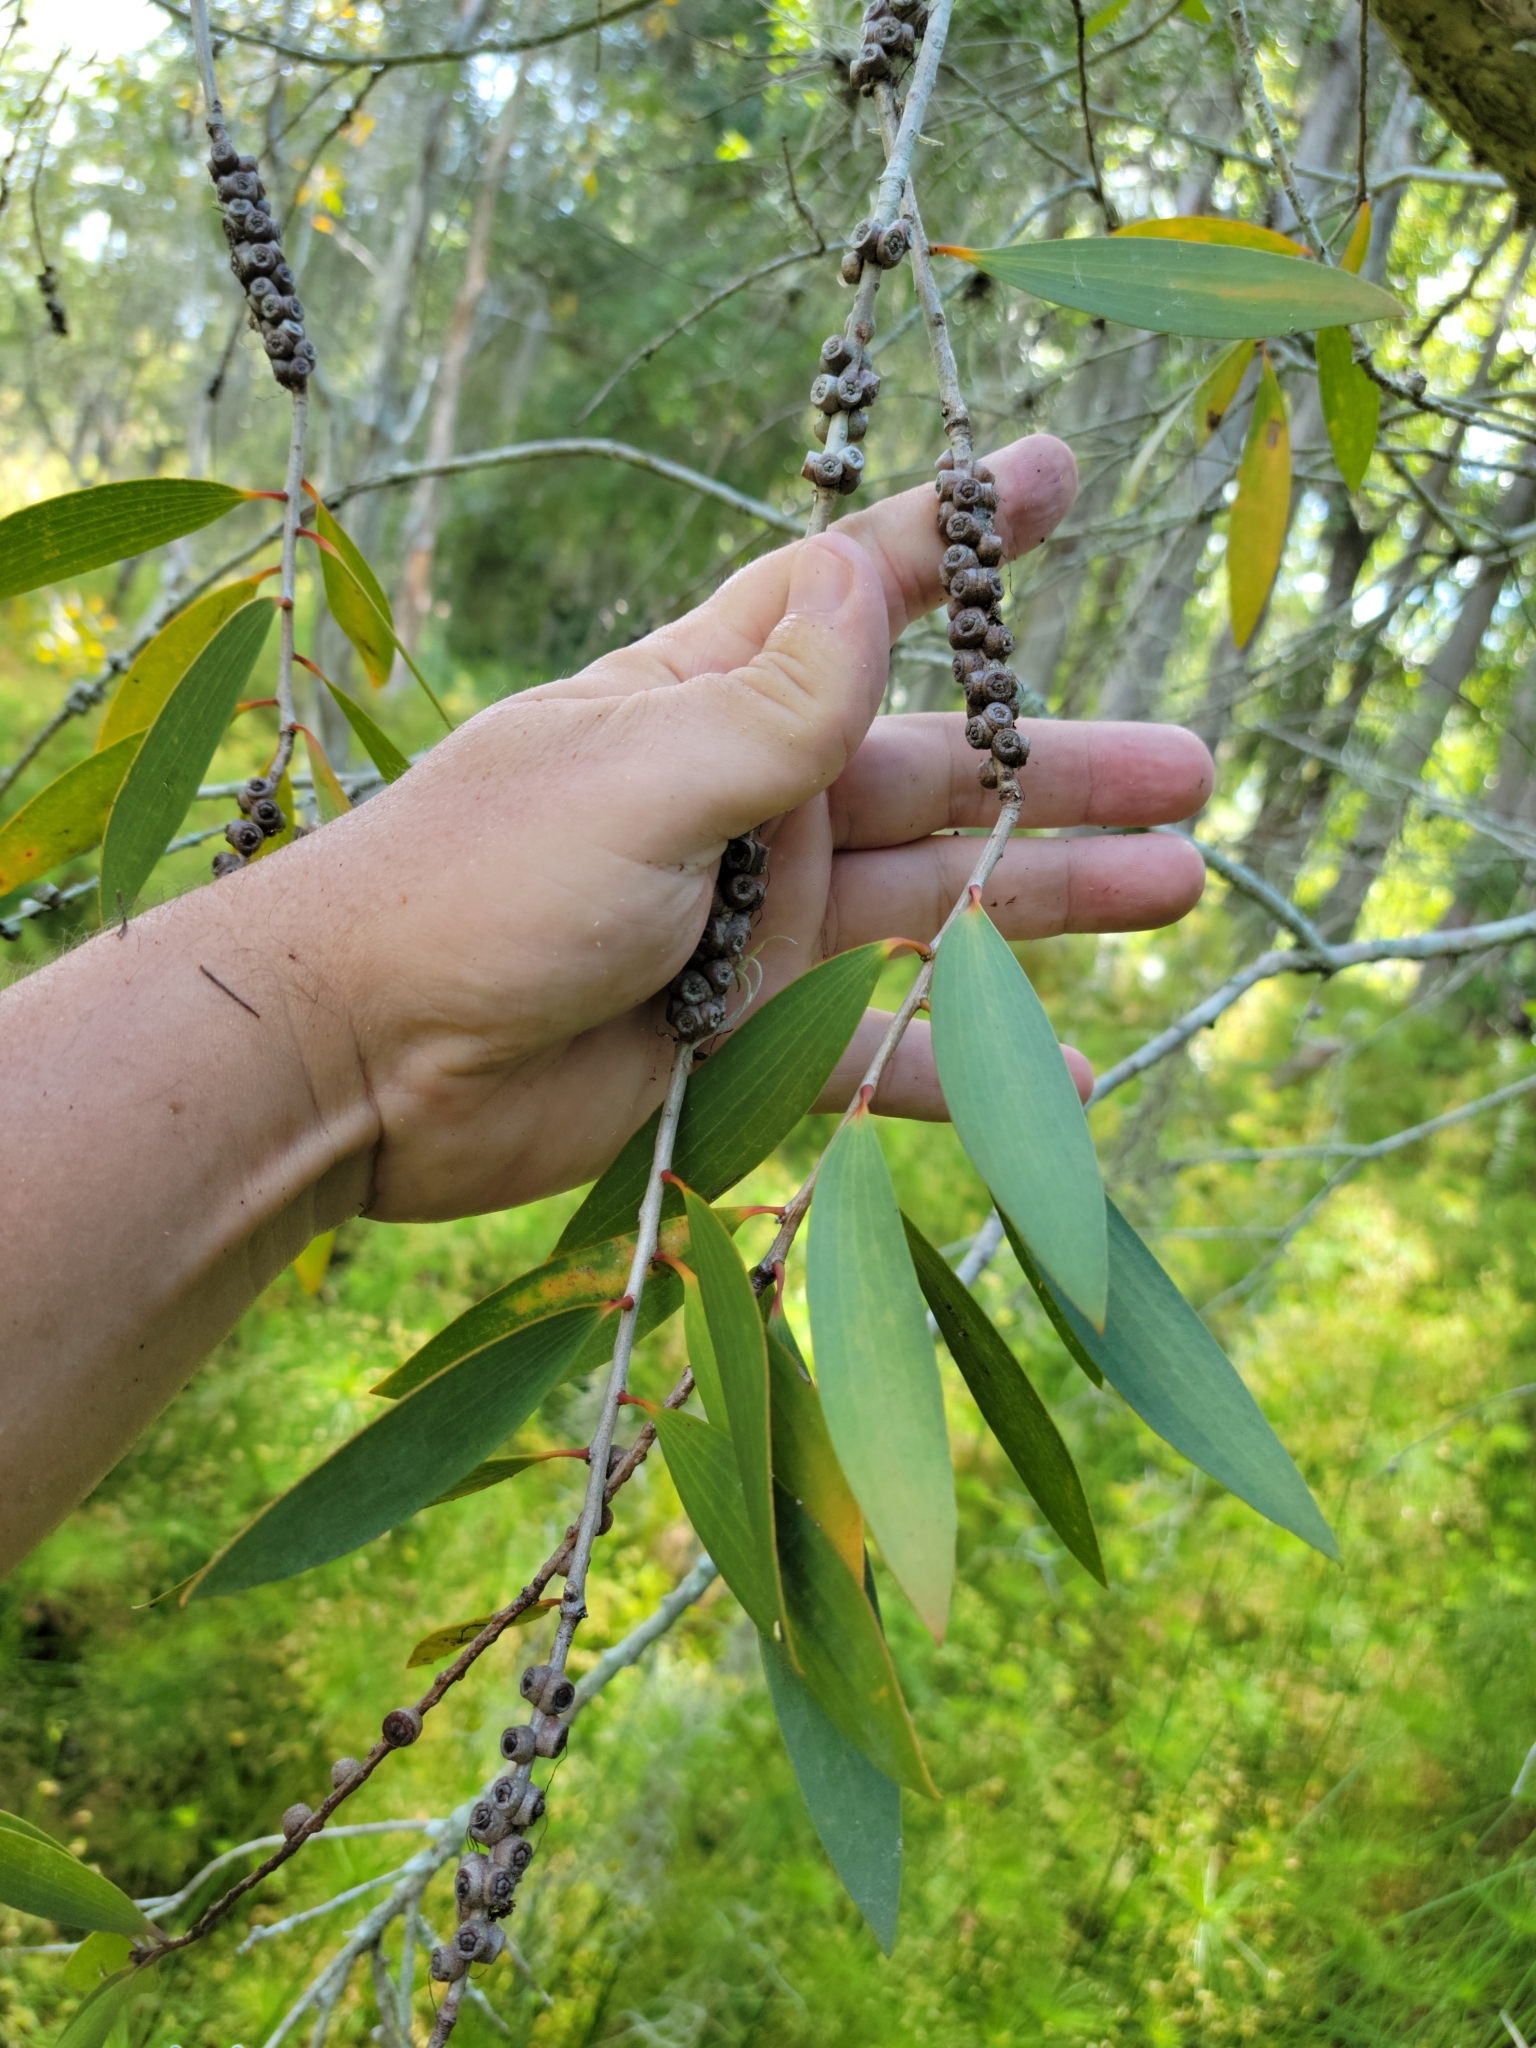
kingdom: Plantae
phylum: Tracheophyta
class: Magnoliopsida
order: Myrtales
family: Myrtaceae
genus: Melaleuca
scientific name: Melaleuca quinquenervia
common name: Punktree
